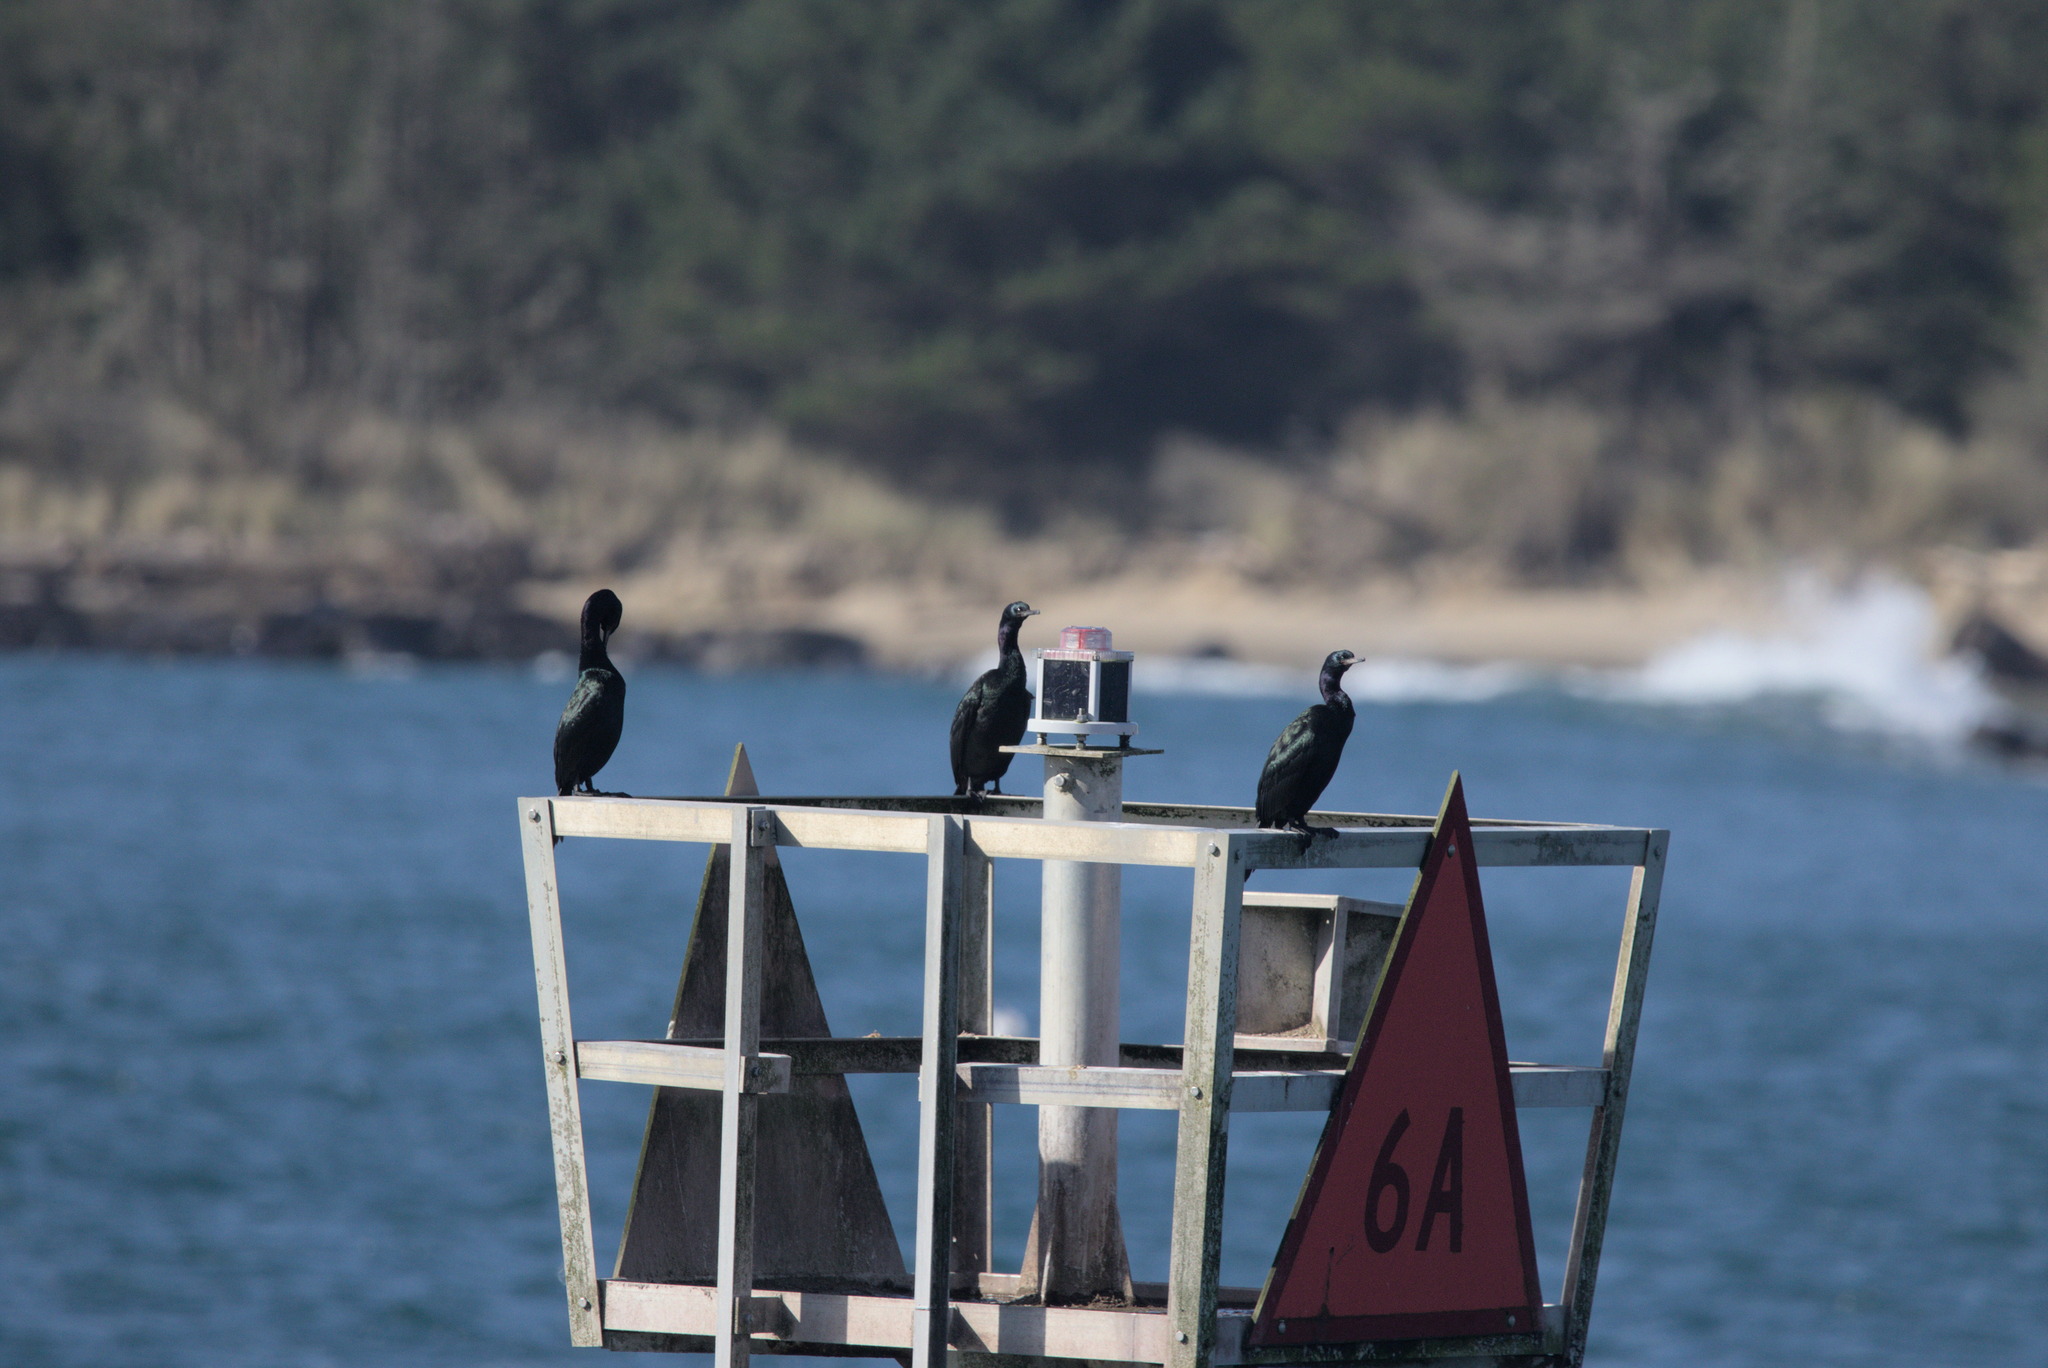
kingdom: Animalia
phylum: Chordata
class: Aves
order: Suliformes
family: Phalacrocoracidae
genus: Phalacrocorax
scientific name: Phalacrocorax pelagicus
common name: Pelagic cormorant
